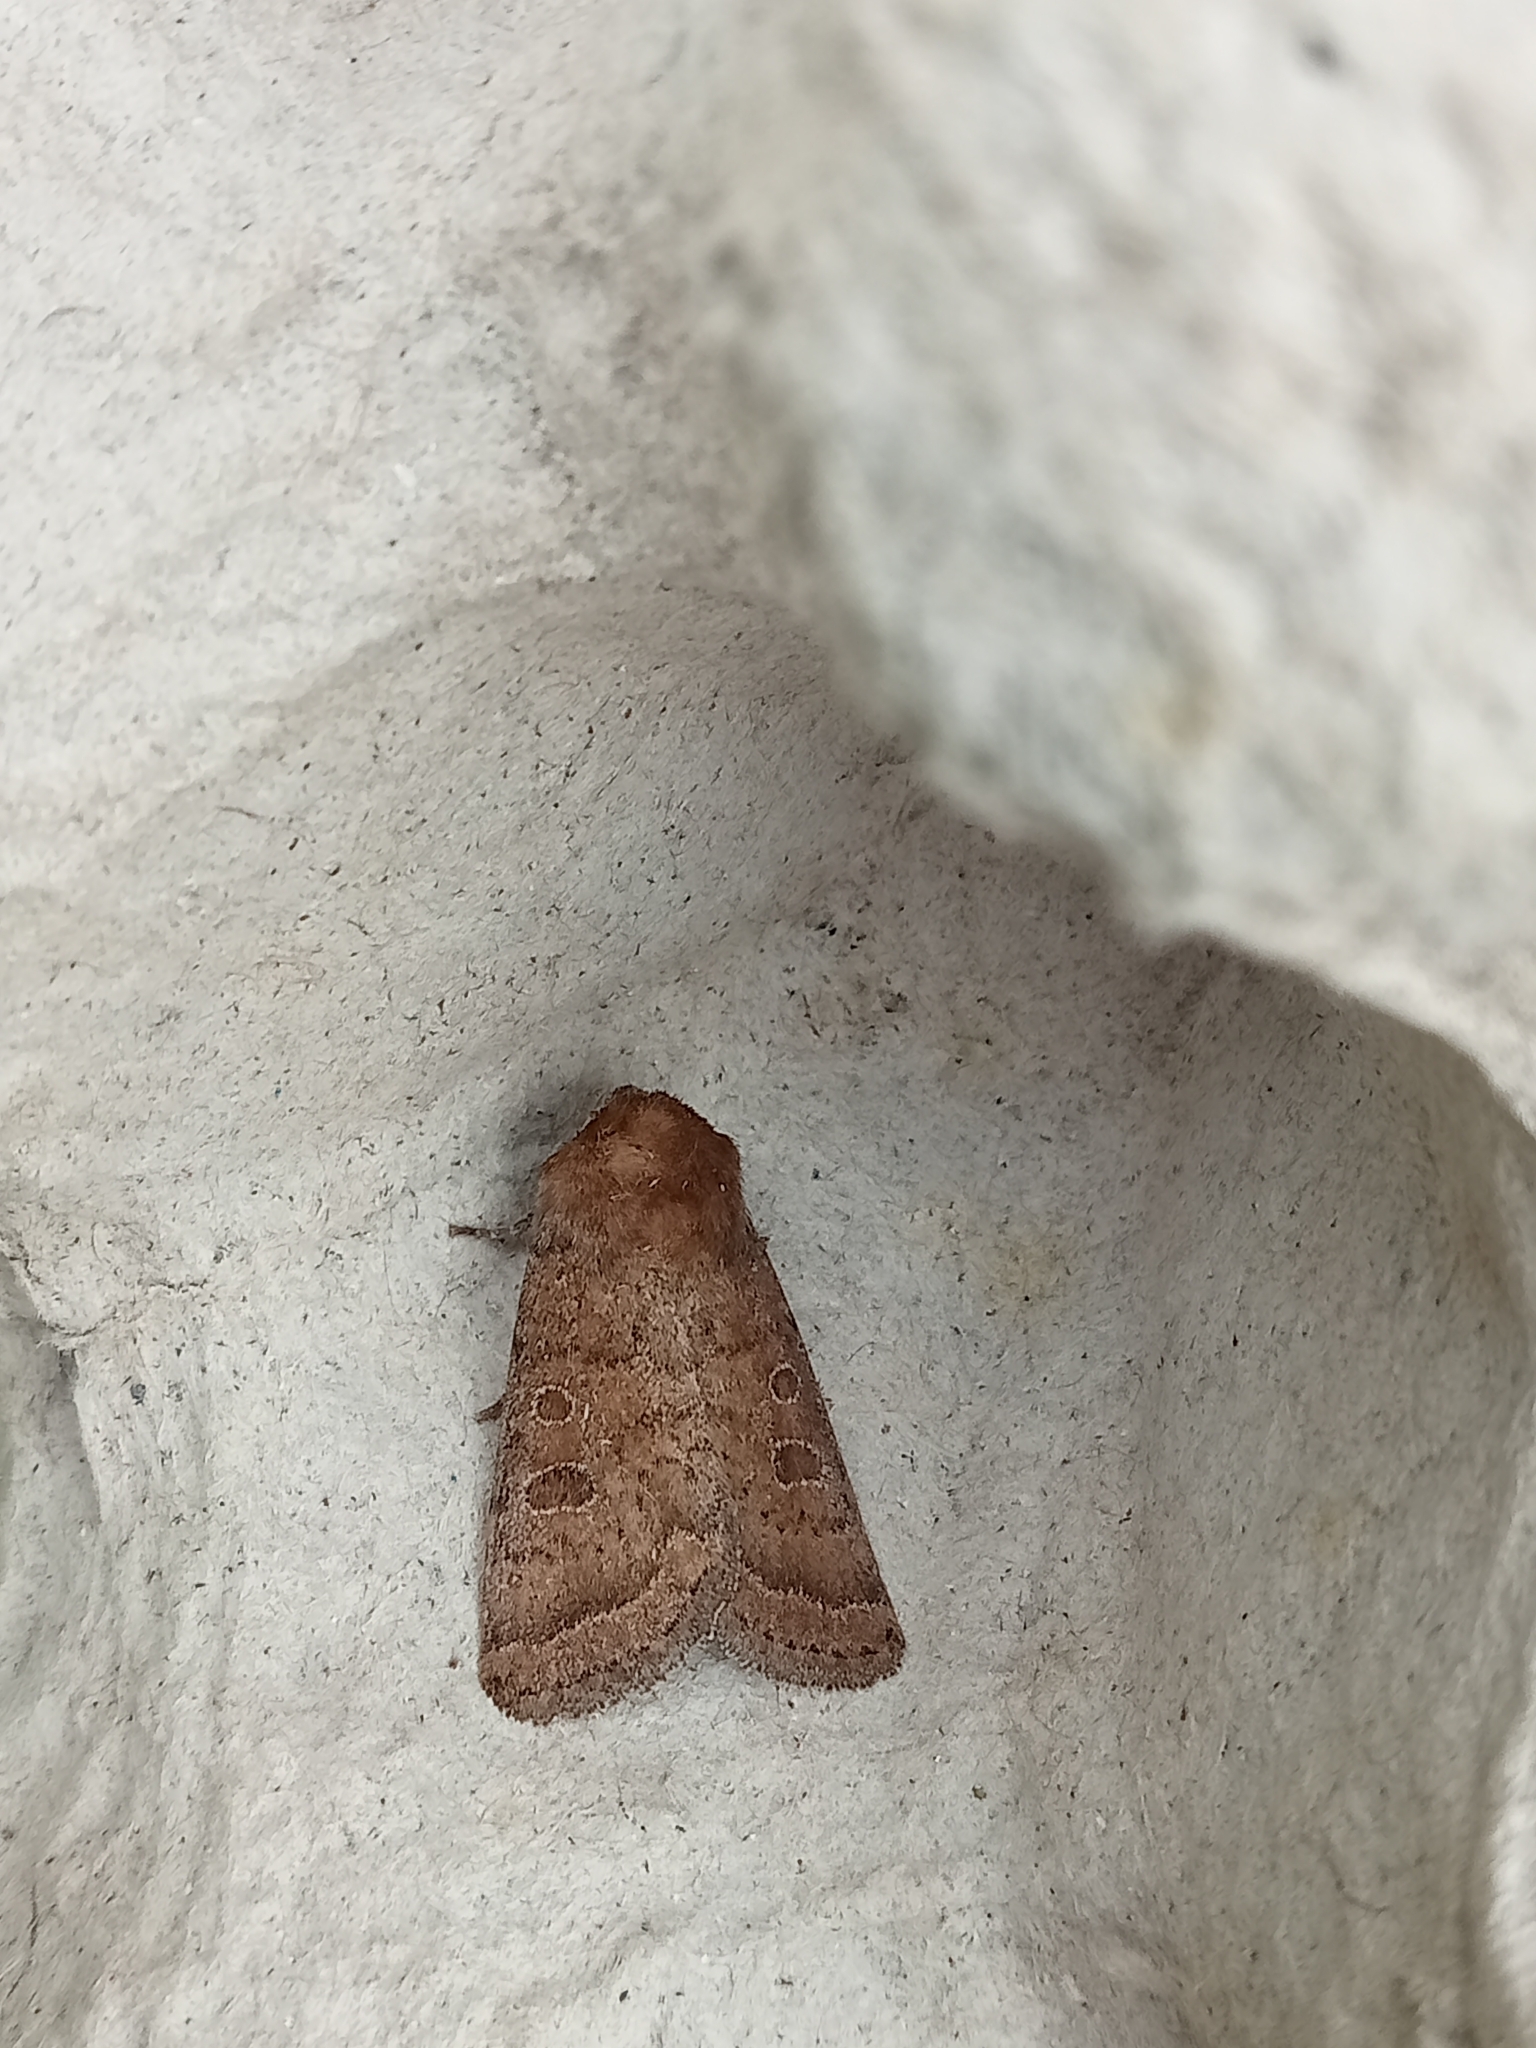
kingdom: Animalia
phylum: Arthropoda
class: Insecta
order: Lepidoptera
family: Noctuidae
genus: Hoplodrina
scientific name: Hoplodrina octogenaria
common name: Uncertain
